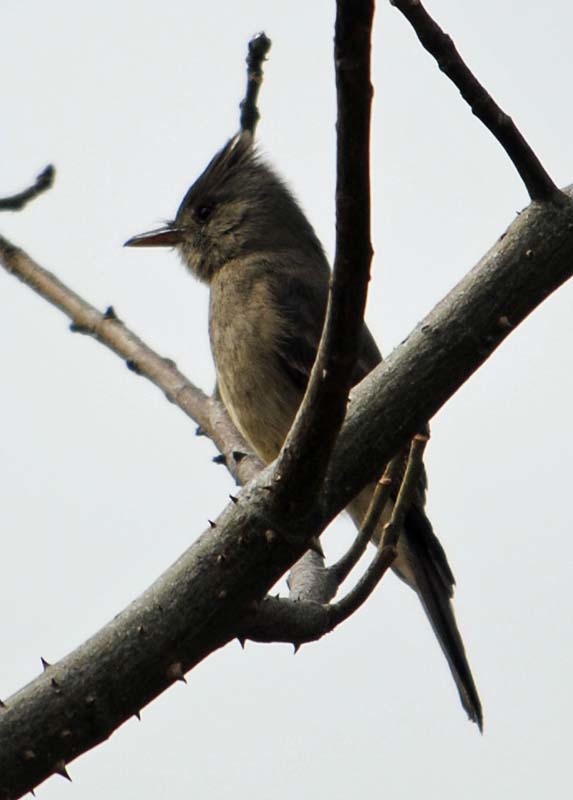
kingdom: Animalia
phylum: Chordata
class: Aves
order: Passeriformes
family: Tyrannidae
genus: Contopus
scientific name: Contopus pertinax
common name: Greater pewee
